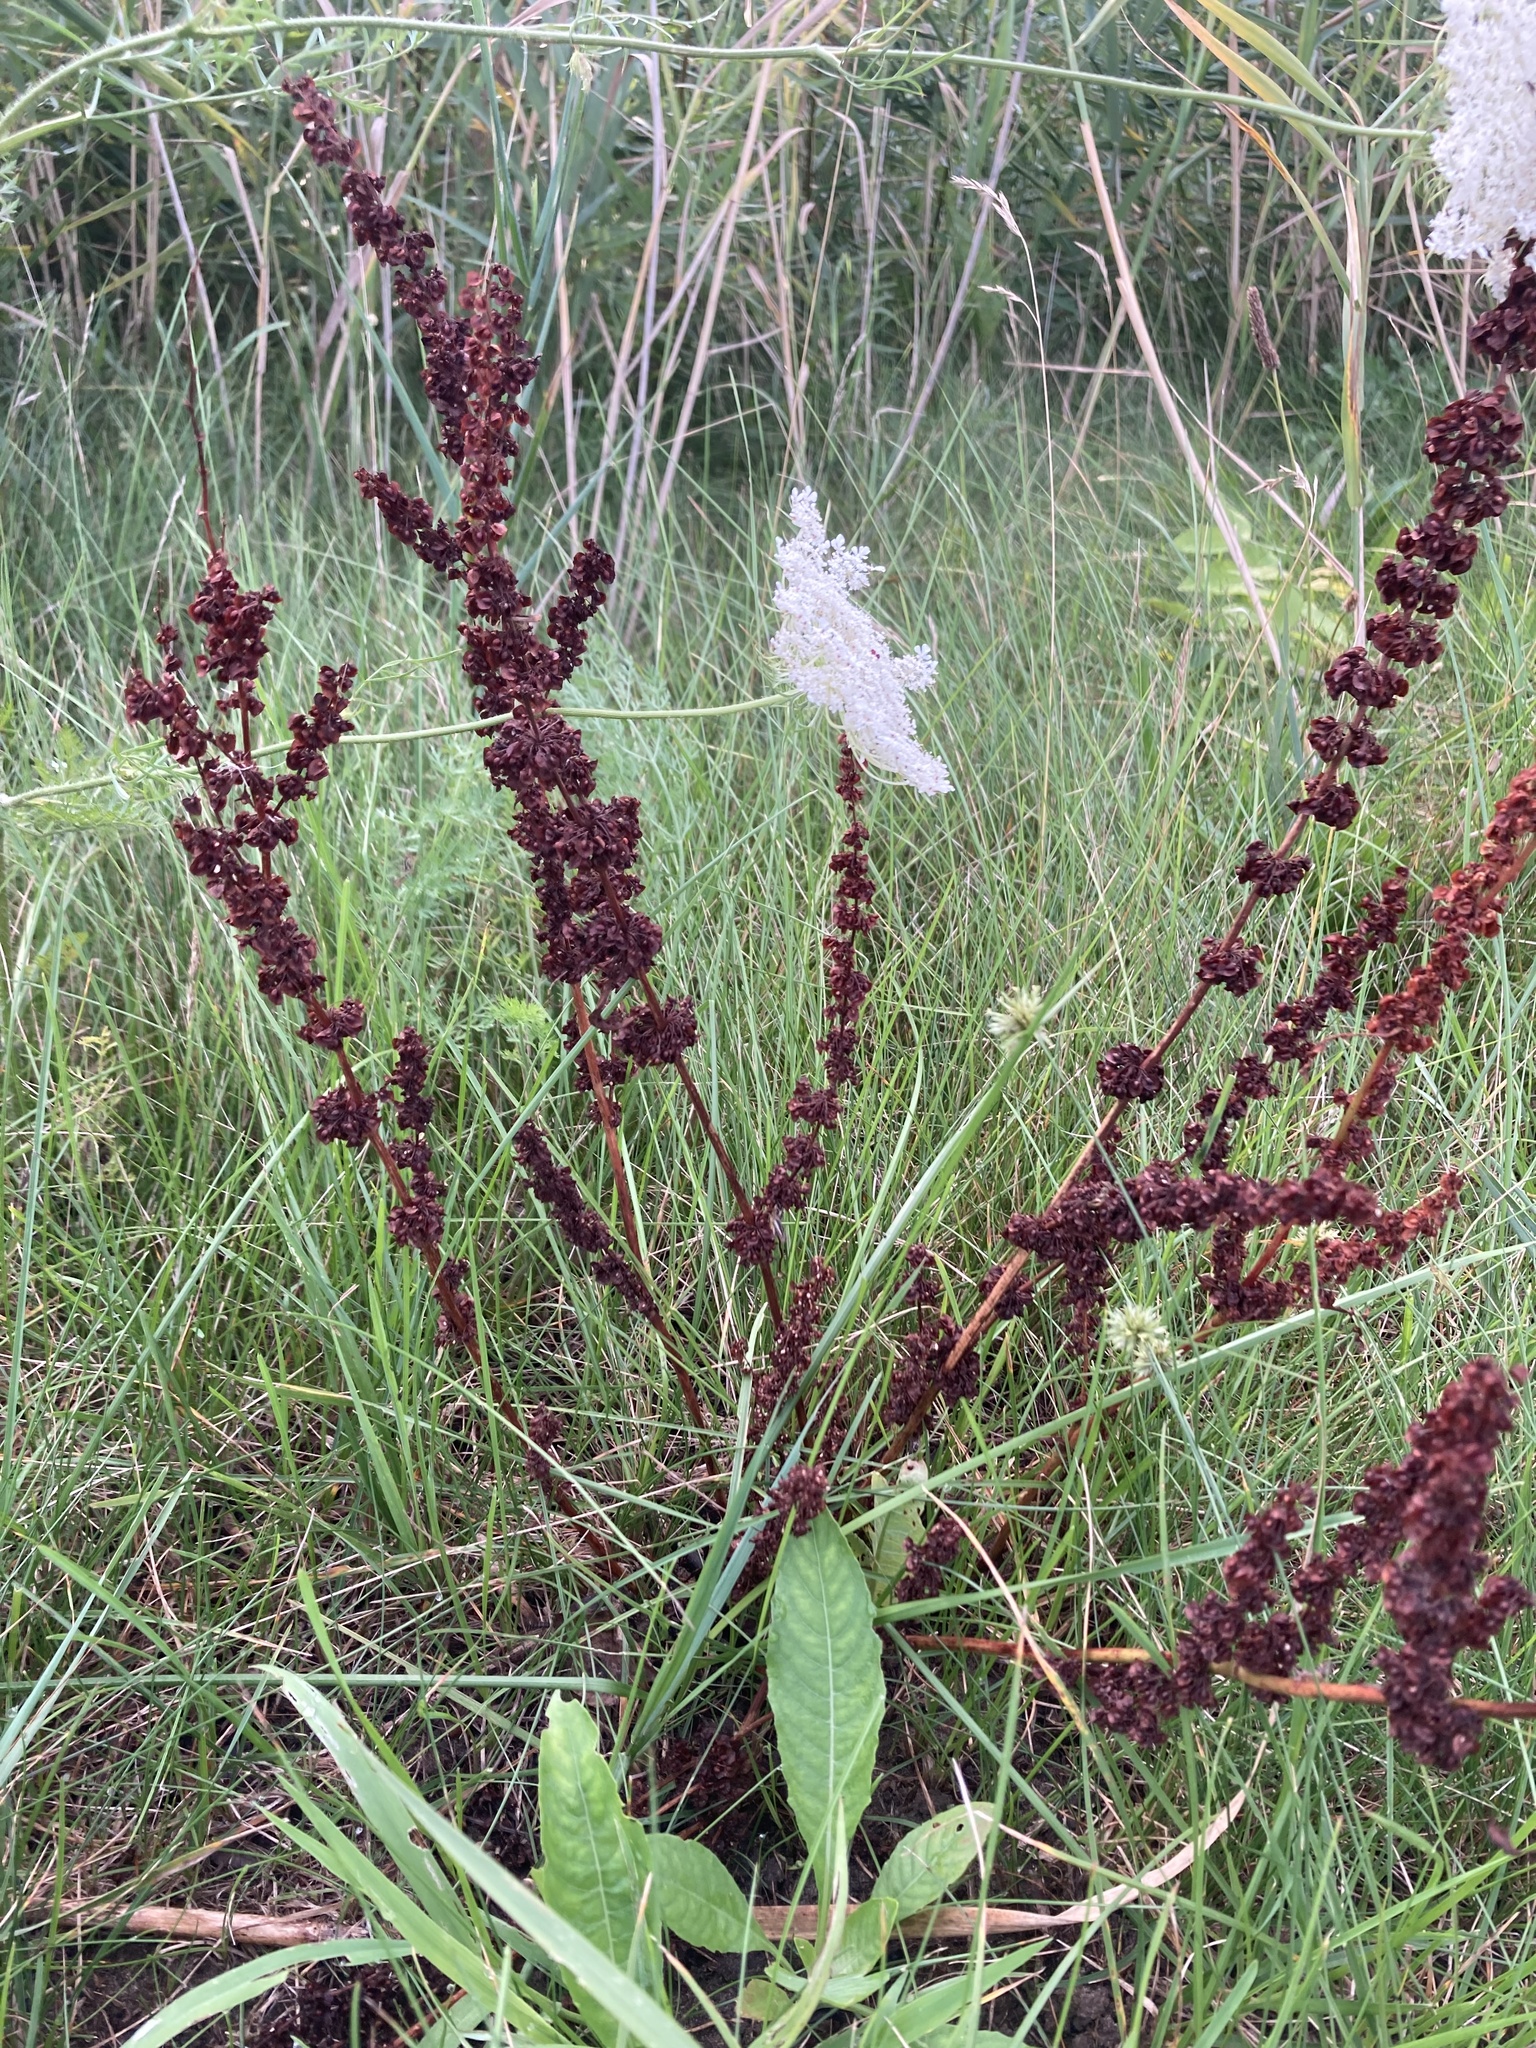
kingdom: Plantae
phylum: Tracheophyta
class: Magnoliopsida
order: Caryophyllales
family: Polygonaceae
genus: Rumex
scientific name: Rumex crispus
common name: Curled dock
